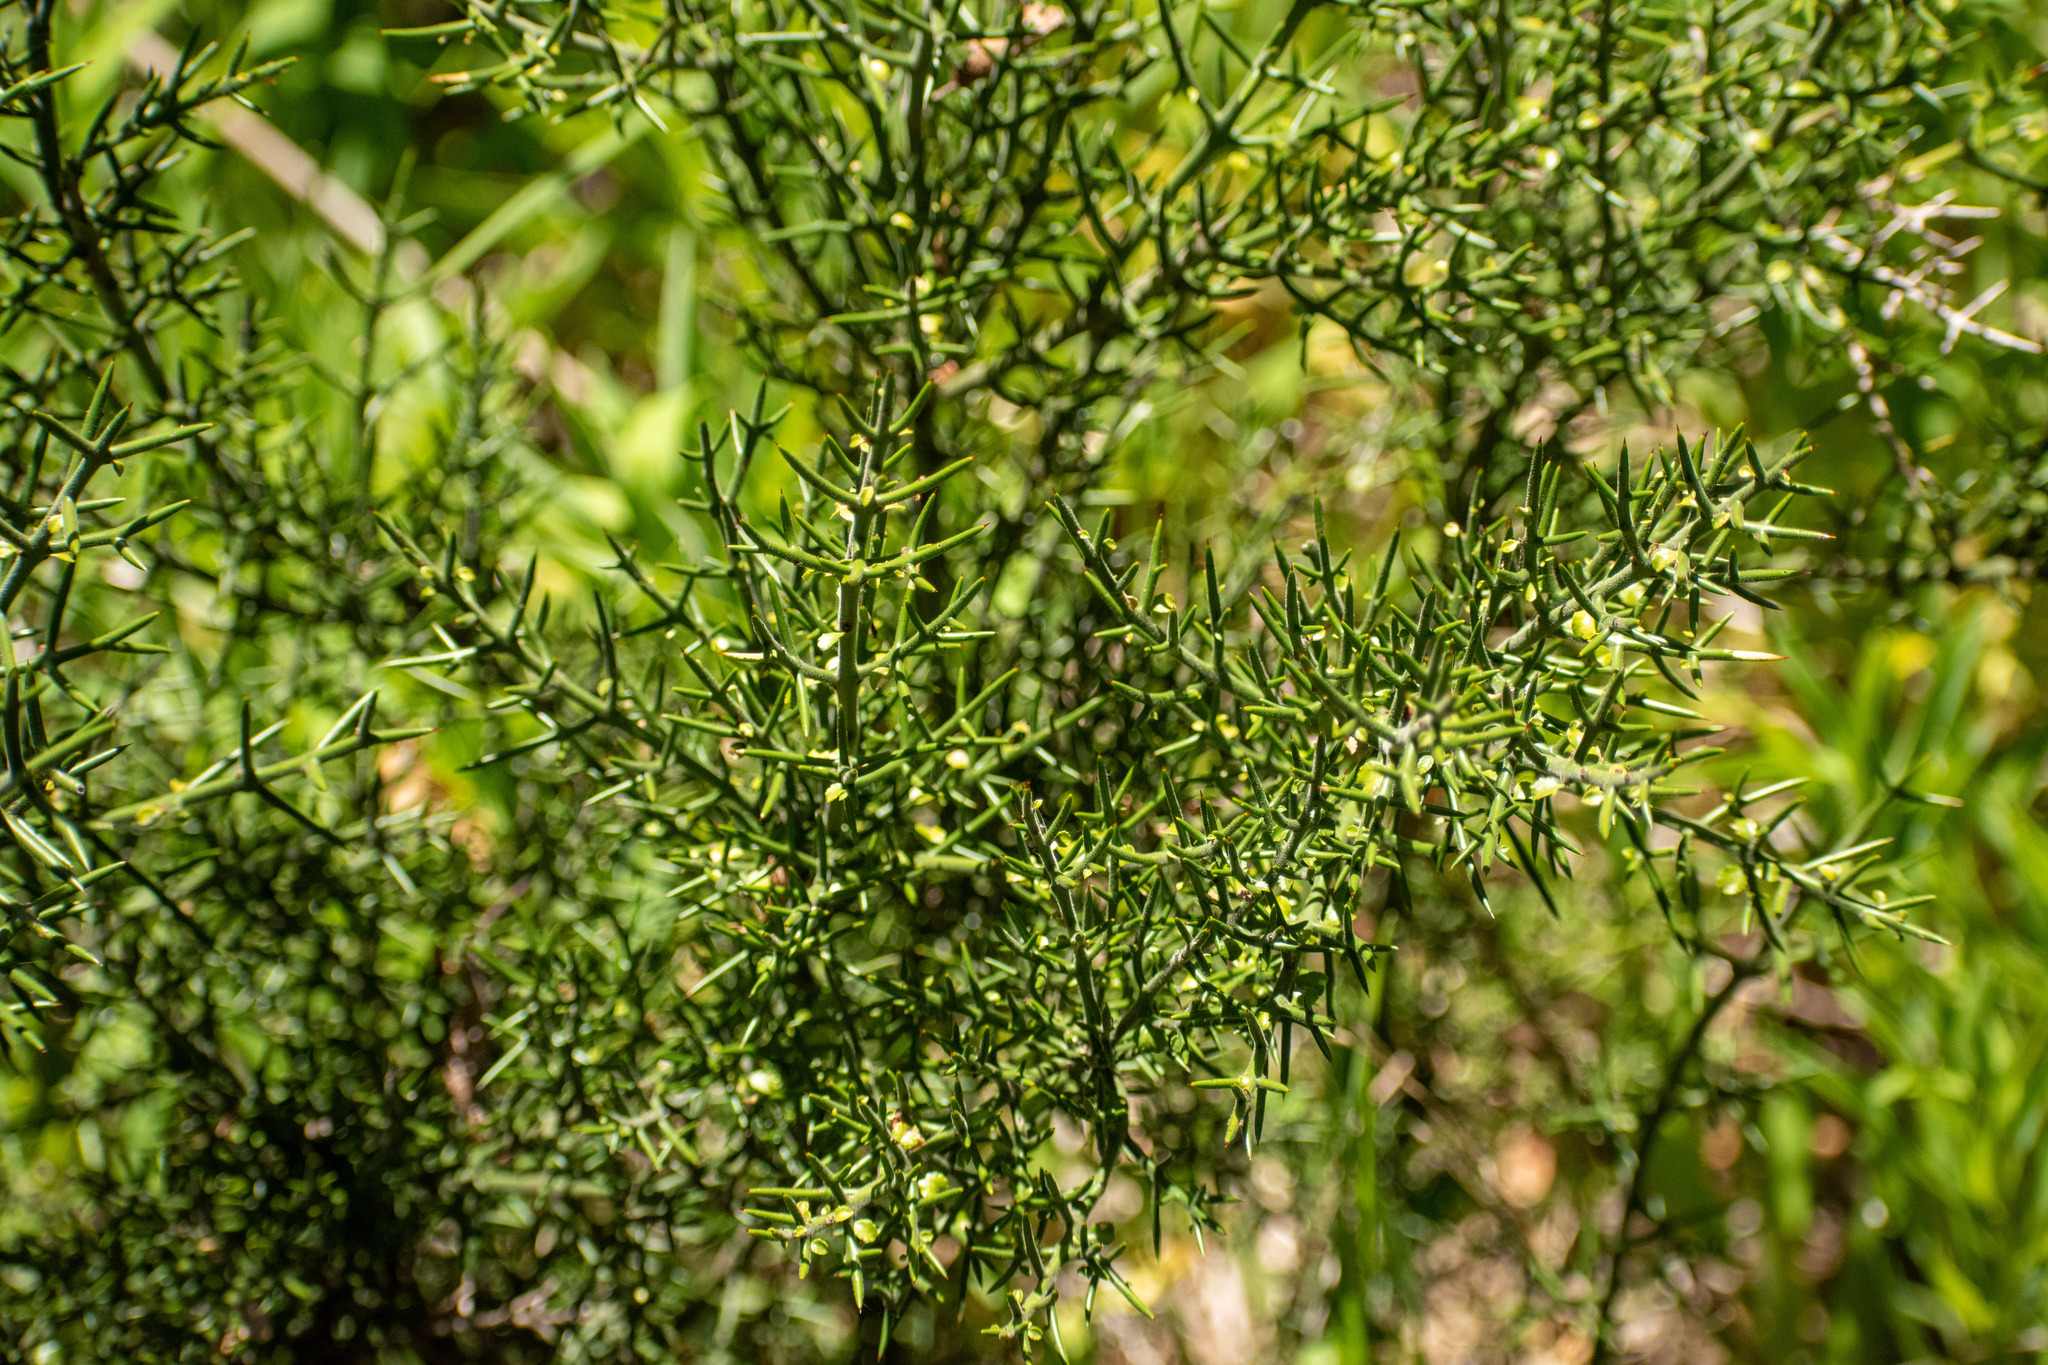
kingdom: Plantae
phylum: Tracheophyta
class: Magnoliopsida
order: Rosales
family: Rhamnaceae
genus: Colletia
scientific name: Colletia hystrix
